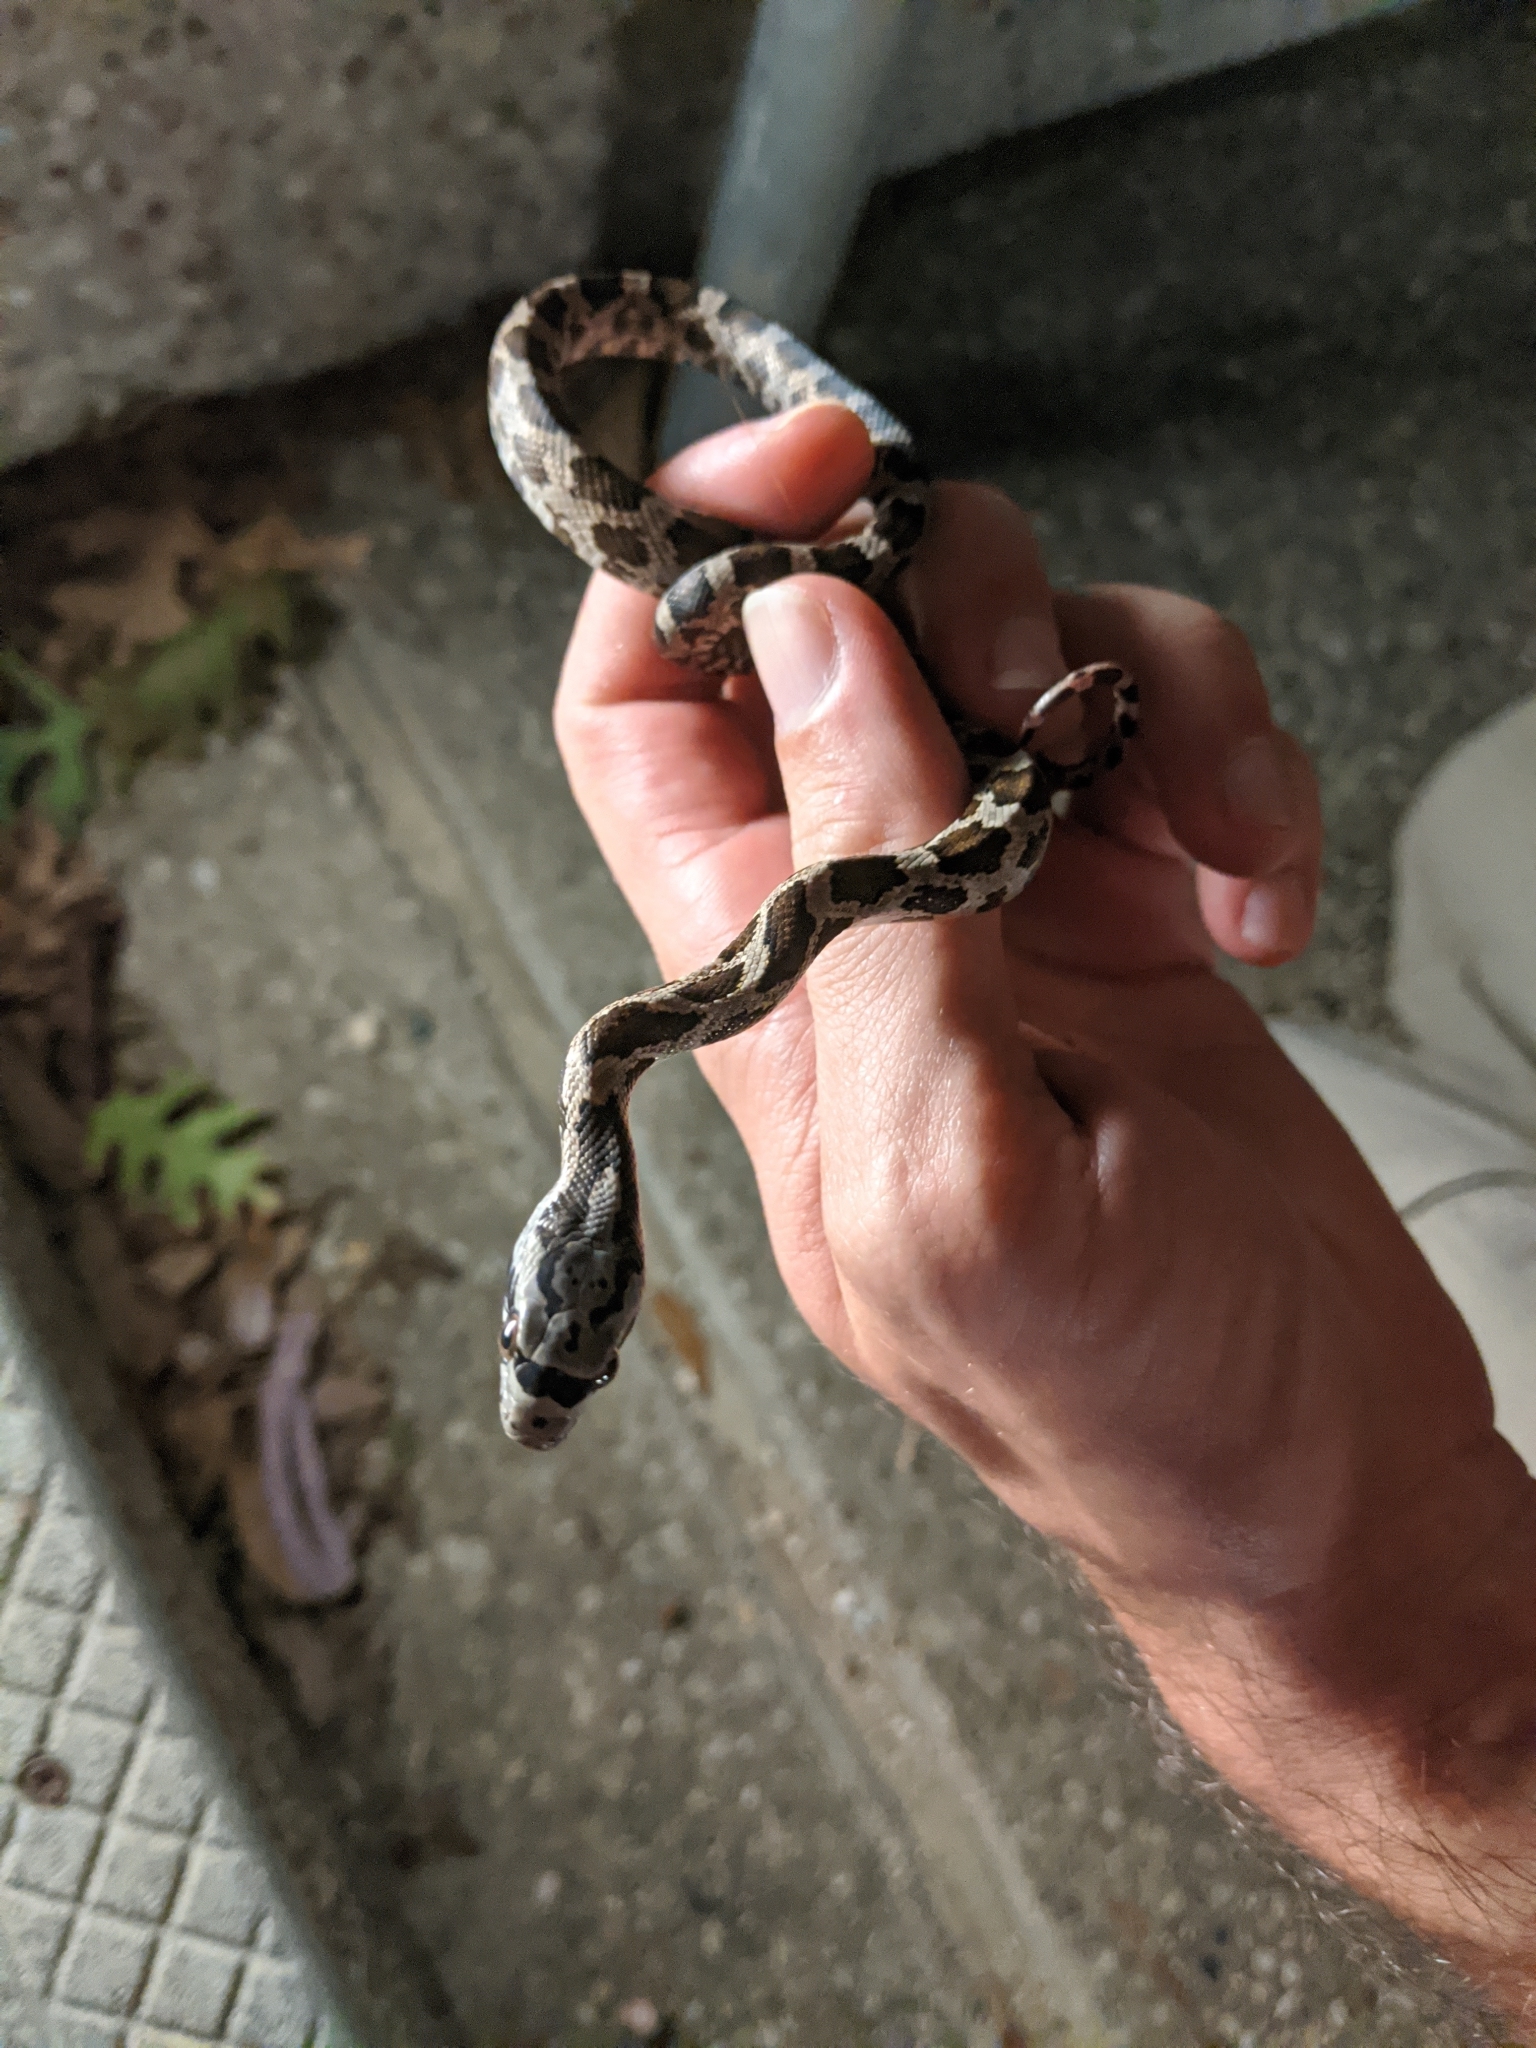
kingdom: Animalia
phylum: Chordata
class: Squamata
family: Colubridae
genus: Pantherophis
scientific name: Pantherophis obsoletus
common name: Black rat snake
